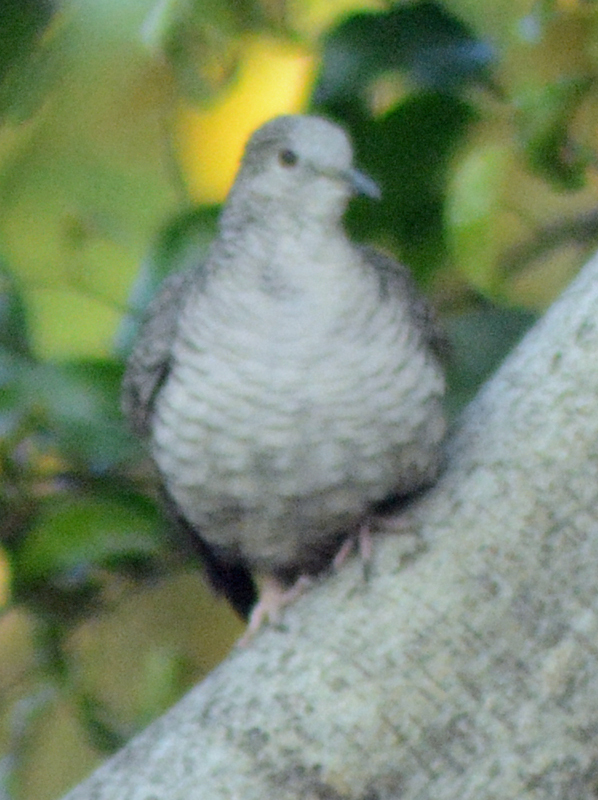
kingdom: Animalia
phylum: Chordata
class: Aves
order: Columbiformes
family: Columbidae
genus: Columbina
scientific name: Columbina inca
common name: Inca dove
